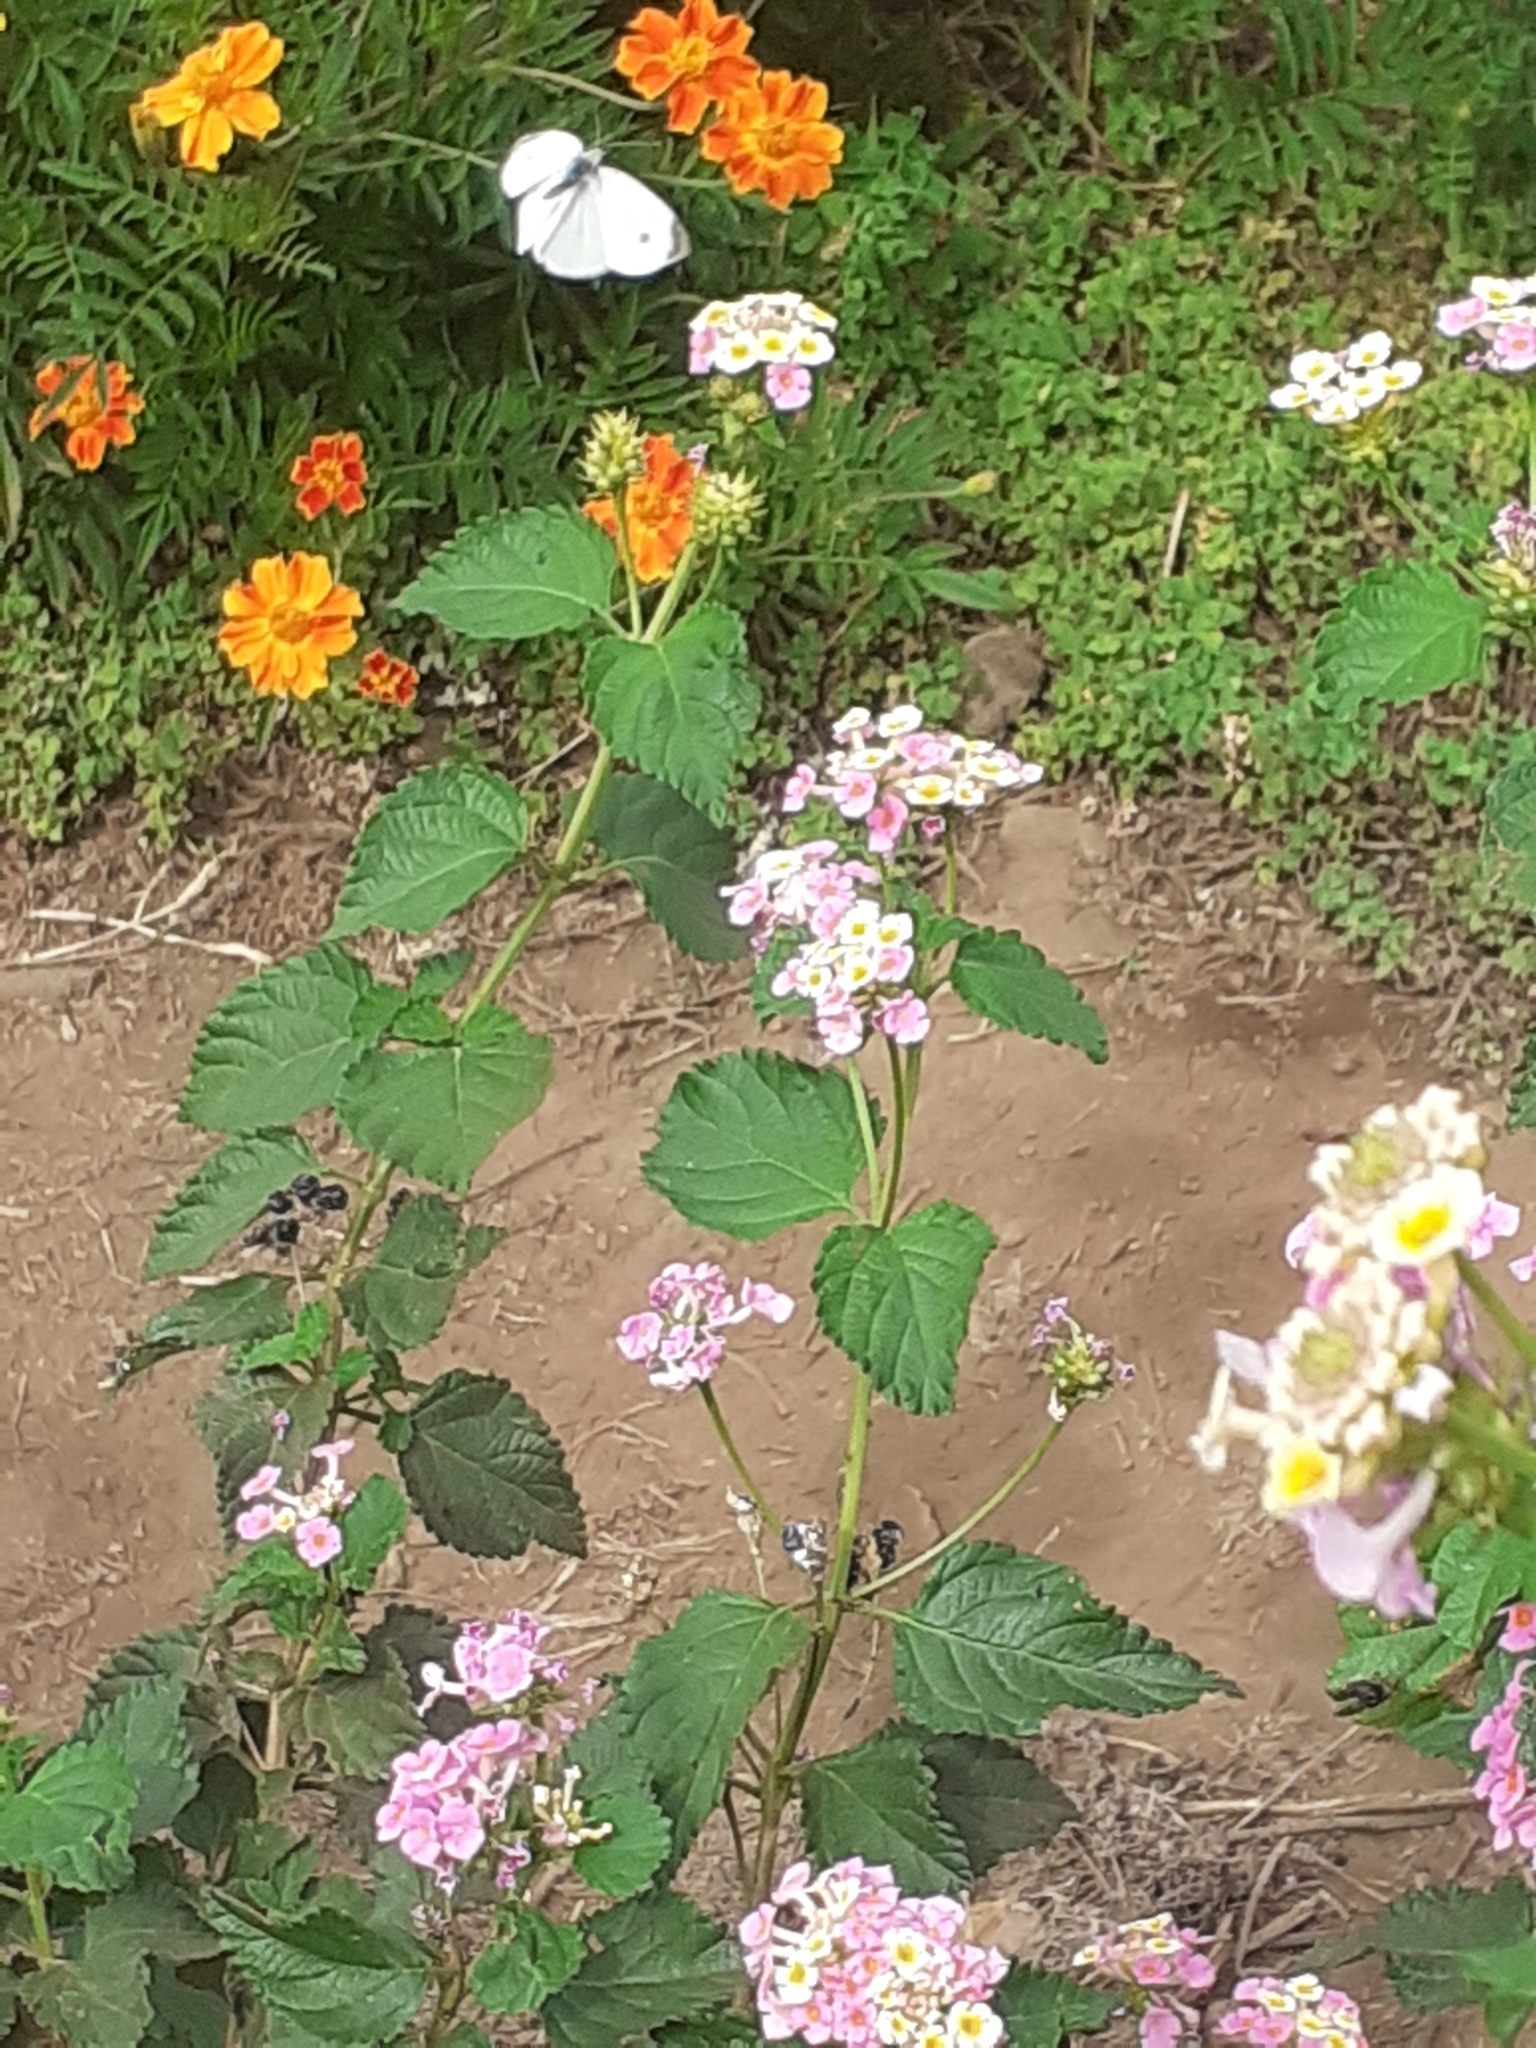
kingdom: Animalia
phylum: Arthropoda
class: Insecta
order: Lepidoptera
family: Pieridae
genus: Pieris
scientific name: Pieris rapae
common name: Small white
